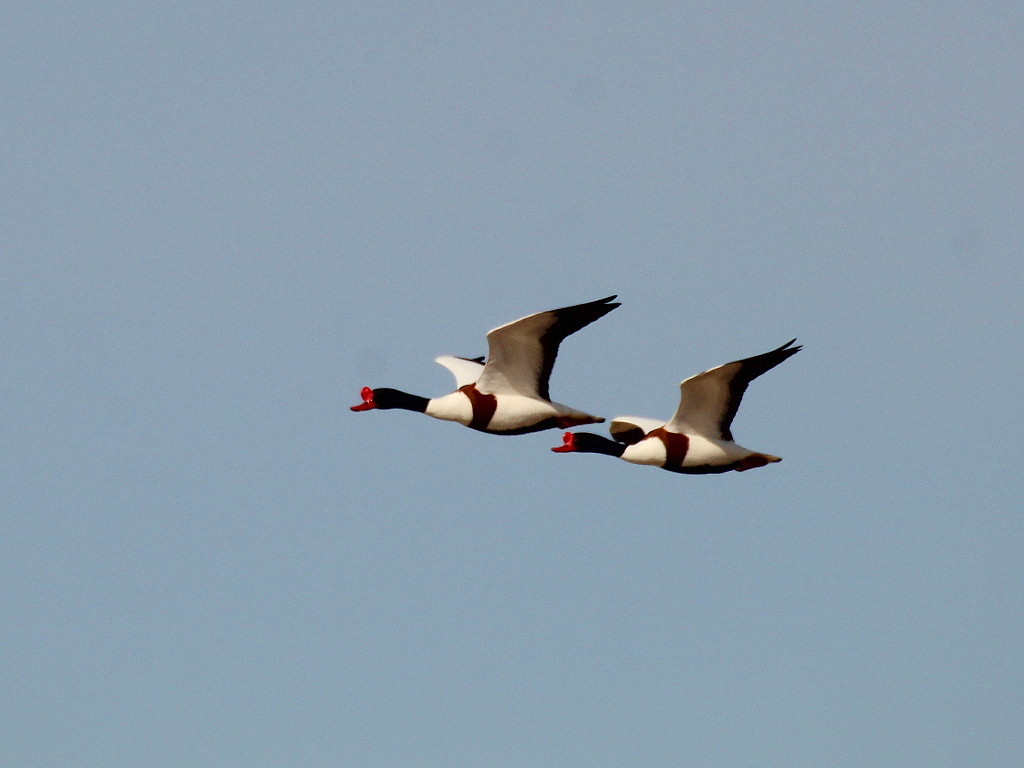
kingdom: Animalia
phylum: Chordata
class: Aves
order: Anseriformes
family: Anatidae
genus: Tadorna
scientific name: Tadorna tadorna
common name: Common shelduck
